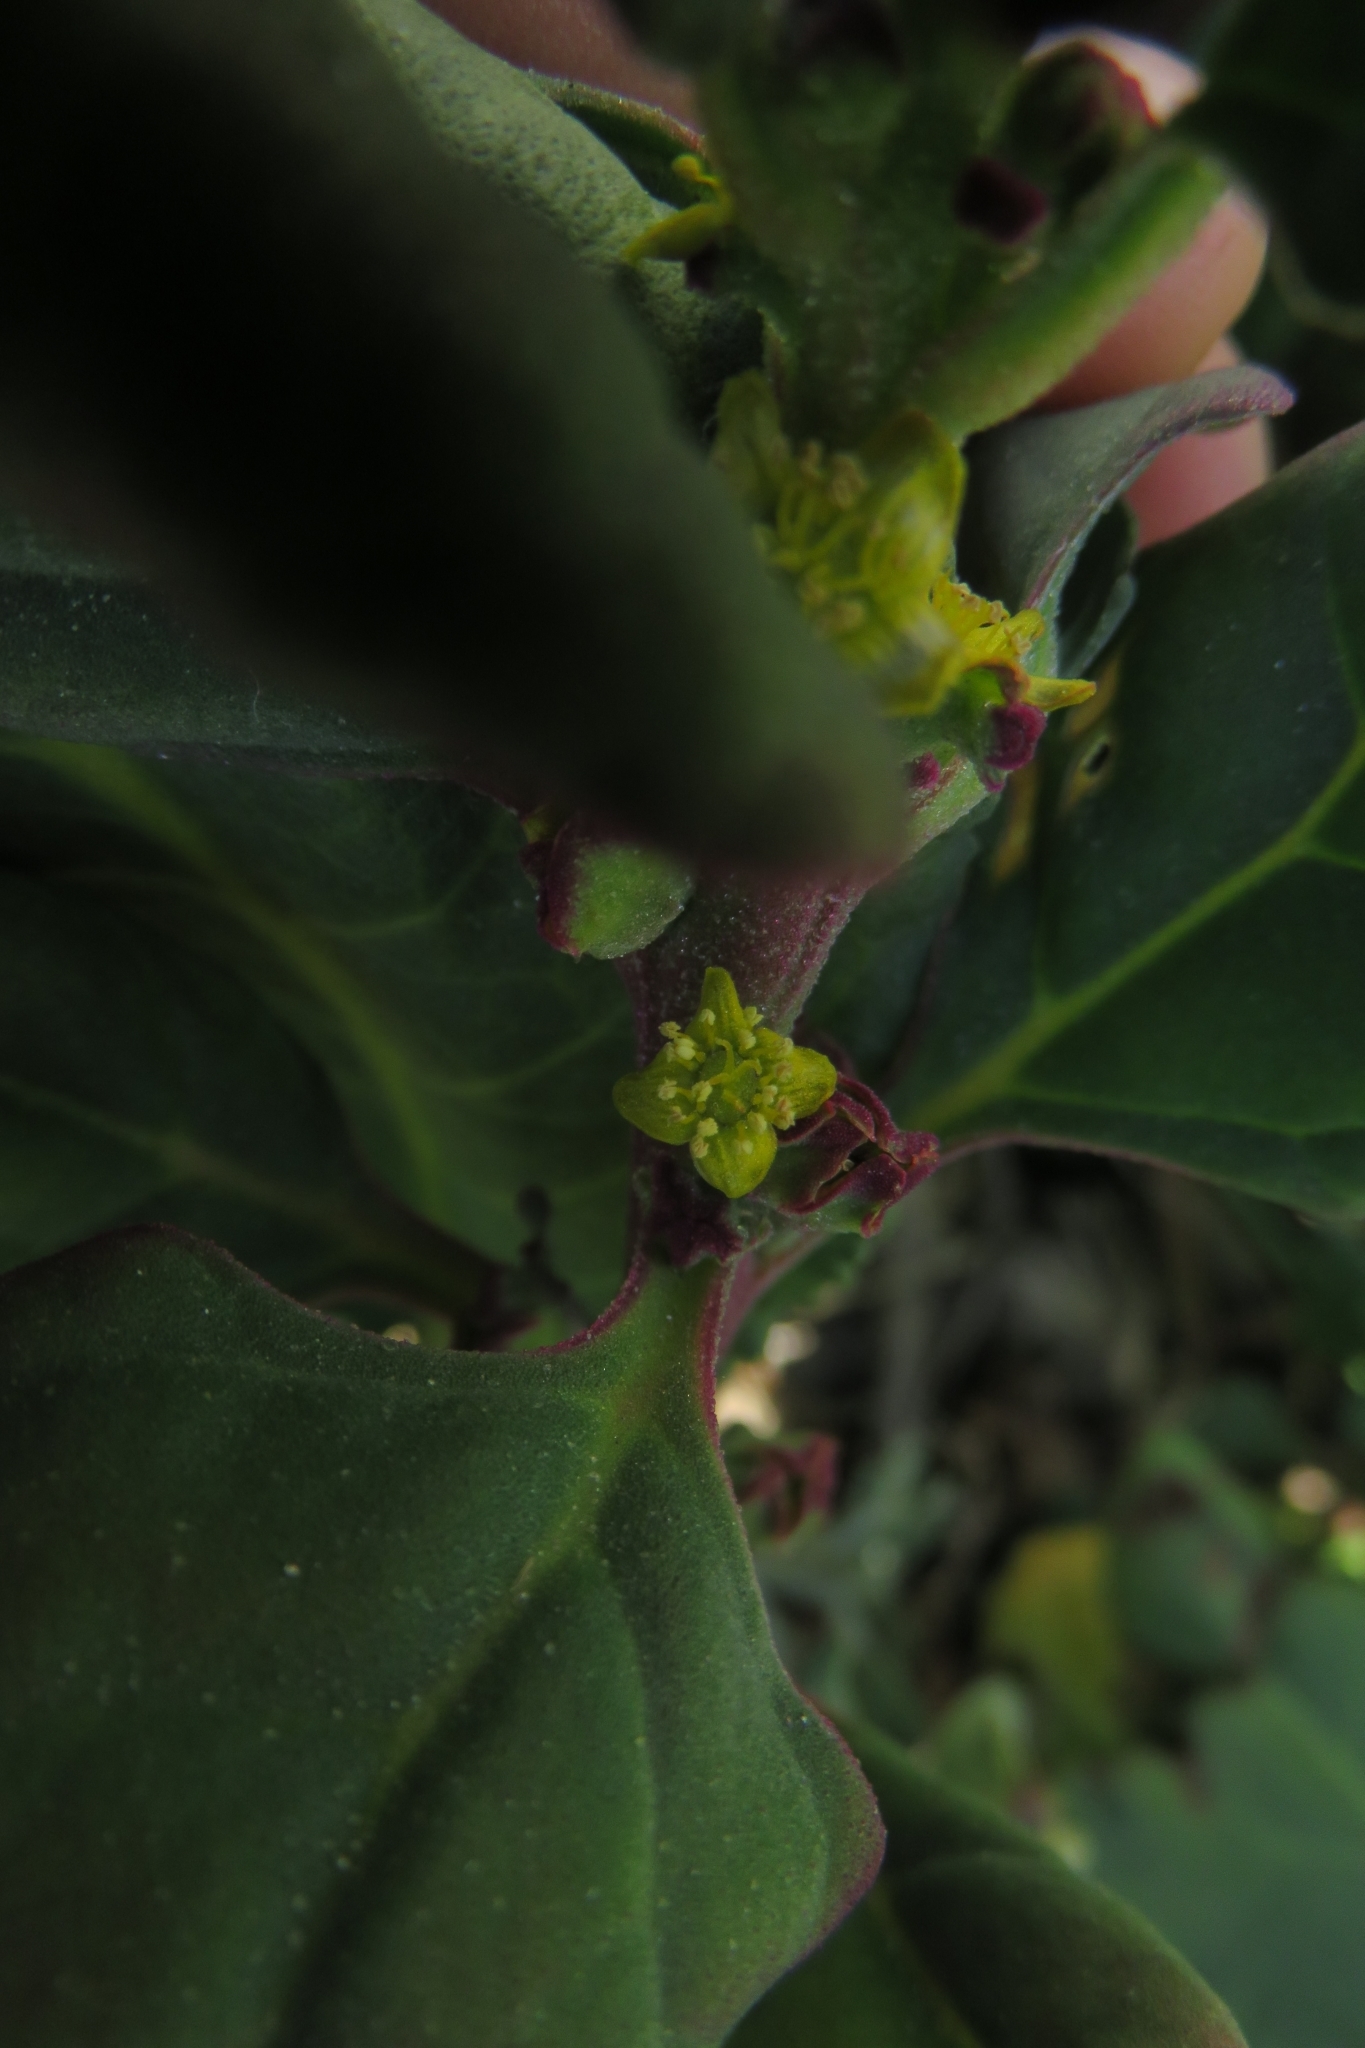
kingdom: Plantae
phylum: Tracheophyta
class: Magnoliopsida
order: Caryophyllales
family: Aizoaceae
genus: Tetragonia
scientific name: Tetragonia tetragonoides
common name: New zealand-spinach
